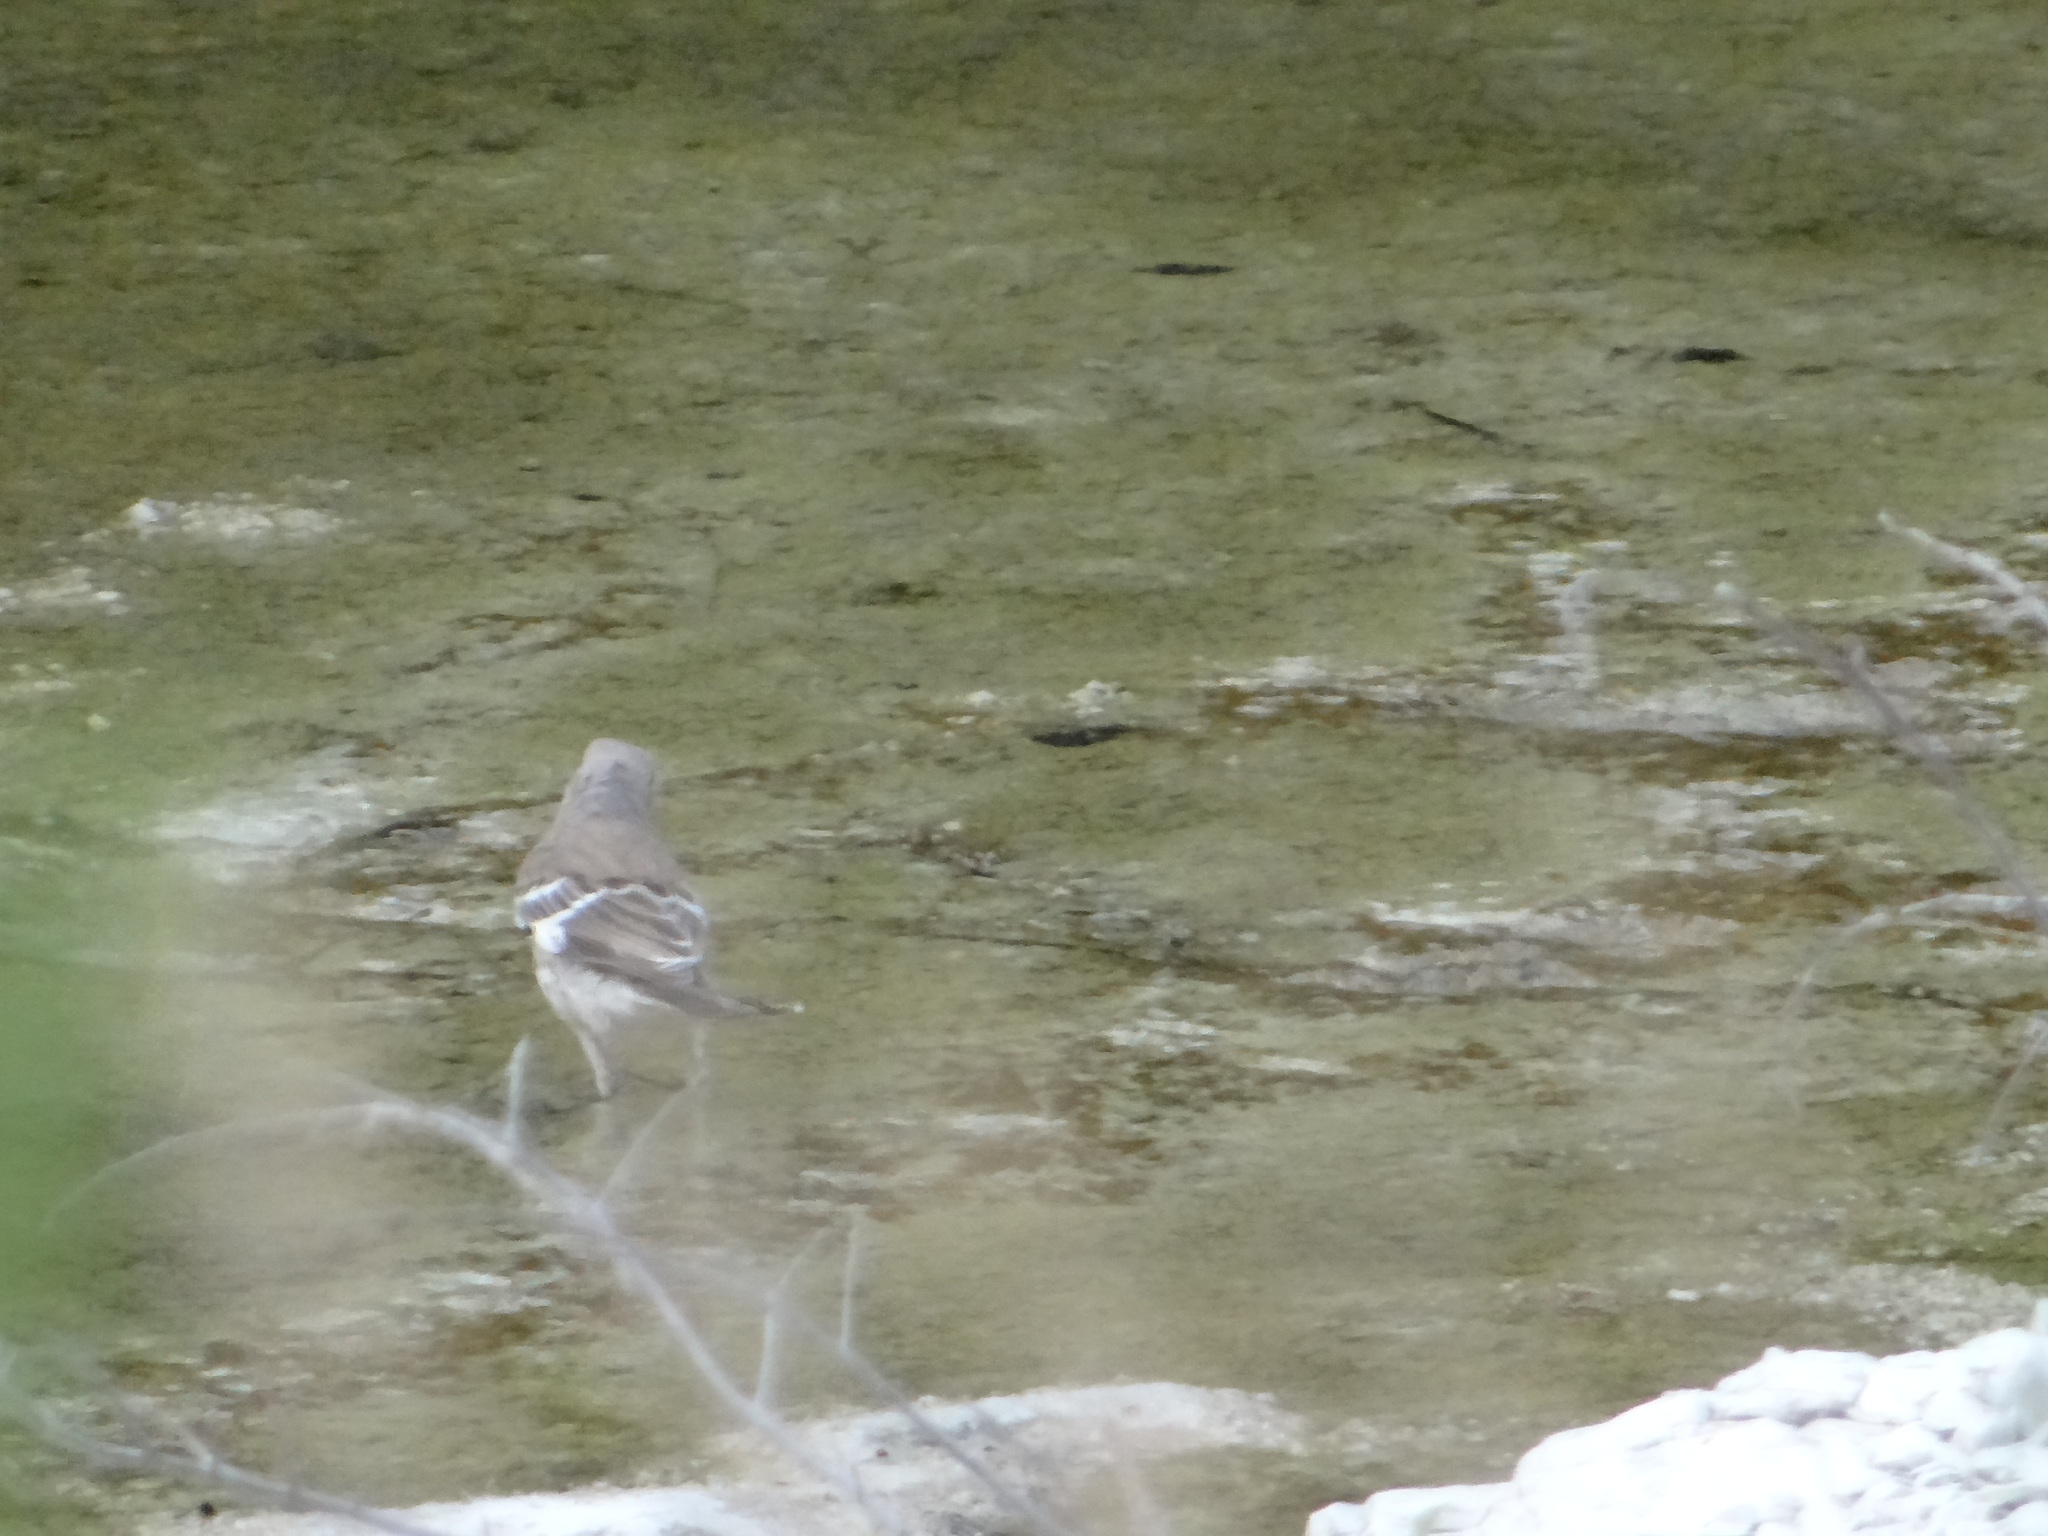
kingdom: Animalia
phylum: Chordata
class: Aves
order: Passeriformes
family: Mimidae
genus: Mimus
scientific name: Mimus polyglottos
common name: Northern mockingbird
